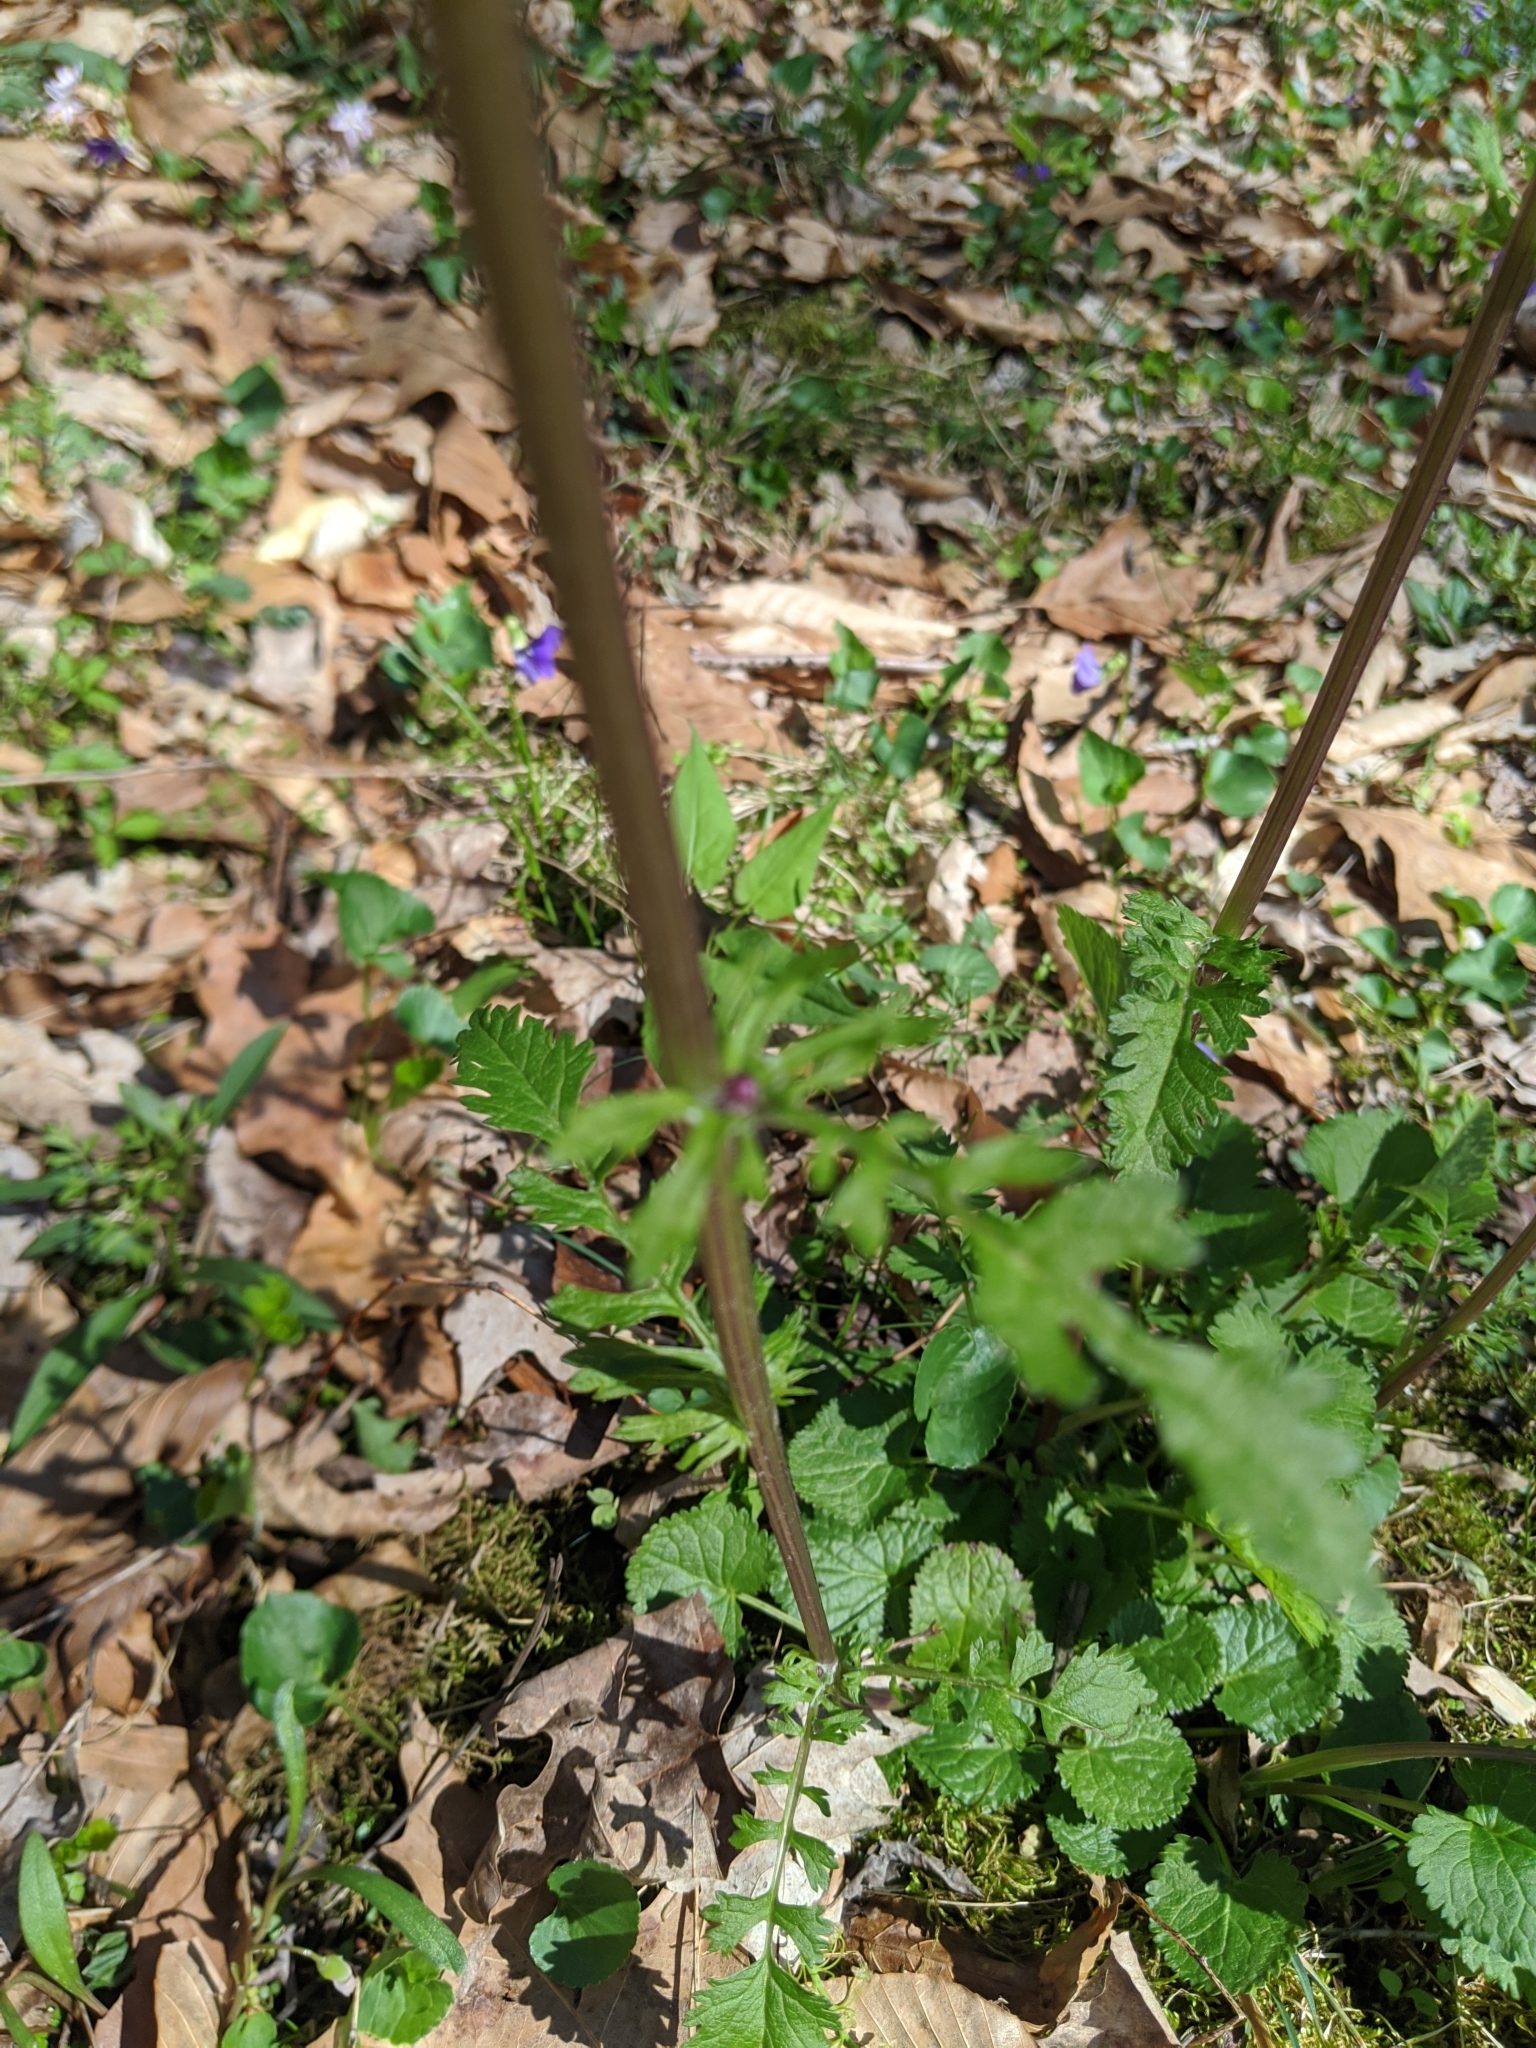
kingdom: Plantae
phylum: Tracheophyta
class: Magnoliopsida
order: Asterales
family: Asteraceae
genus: Packera
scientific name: Packera aurea
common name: Golden groundsel
